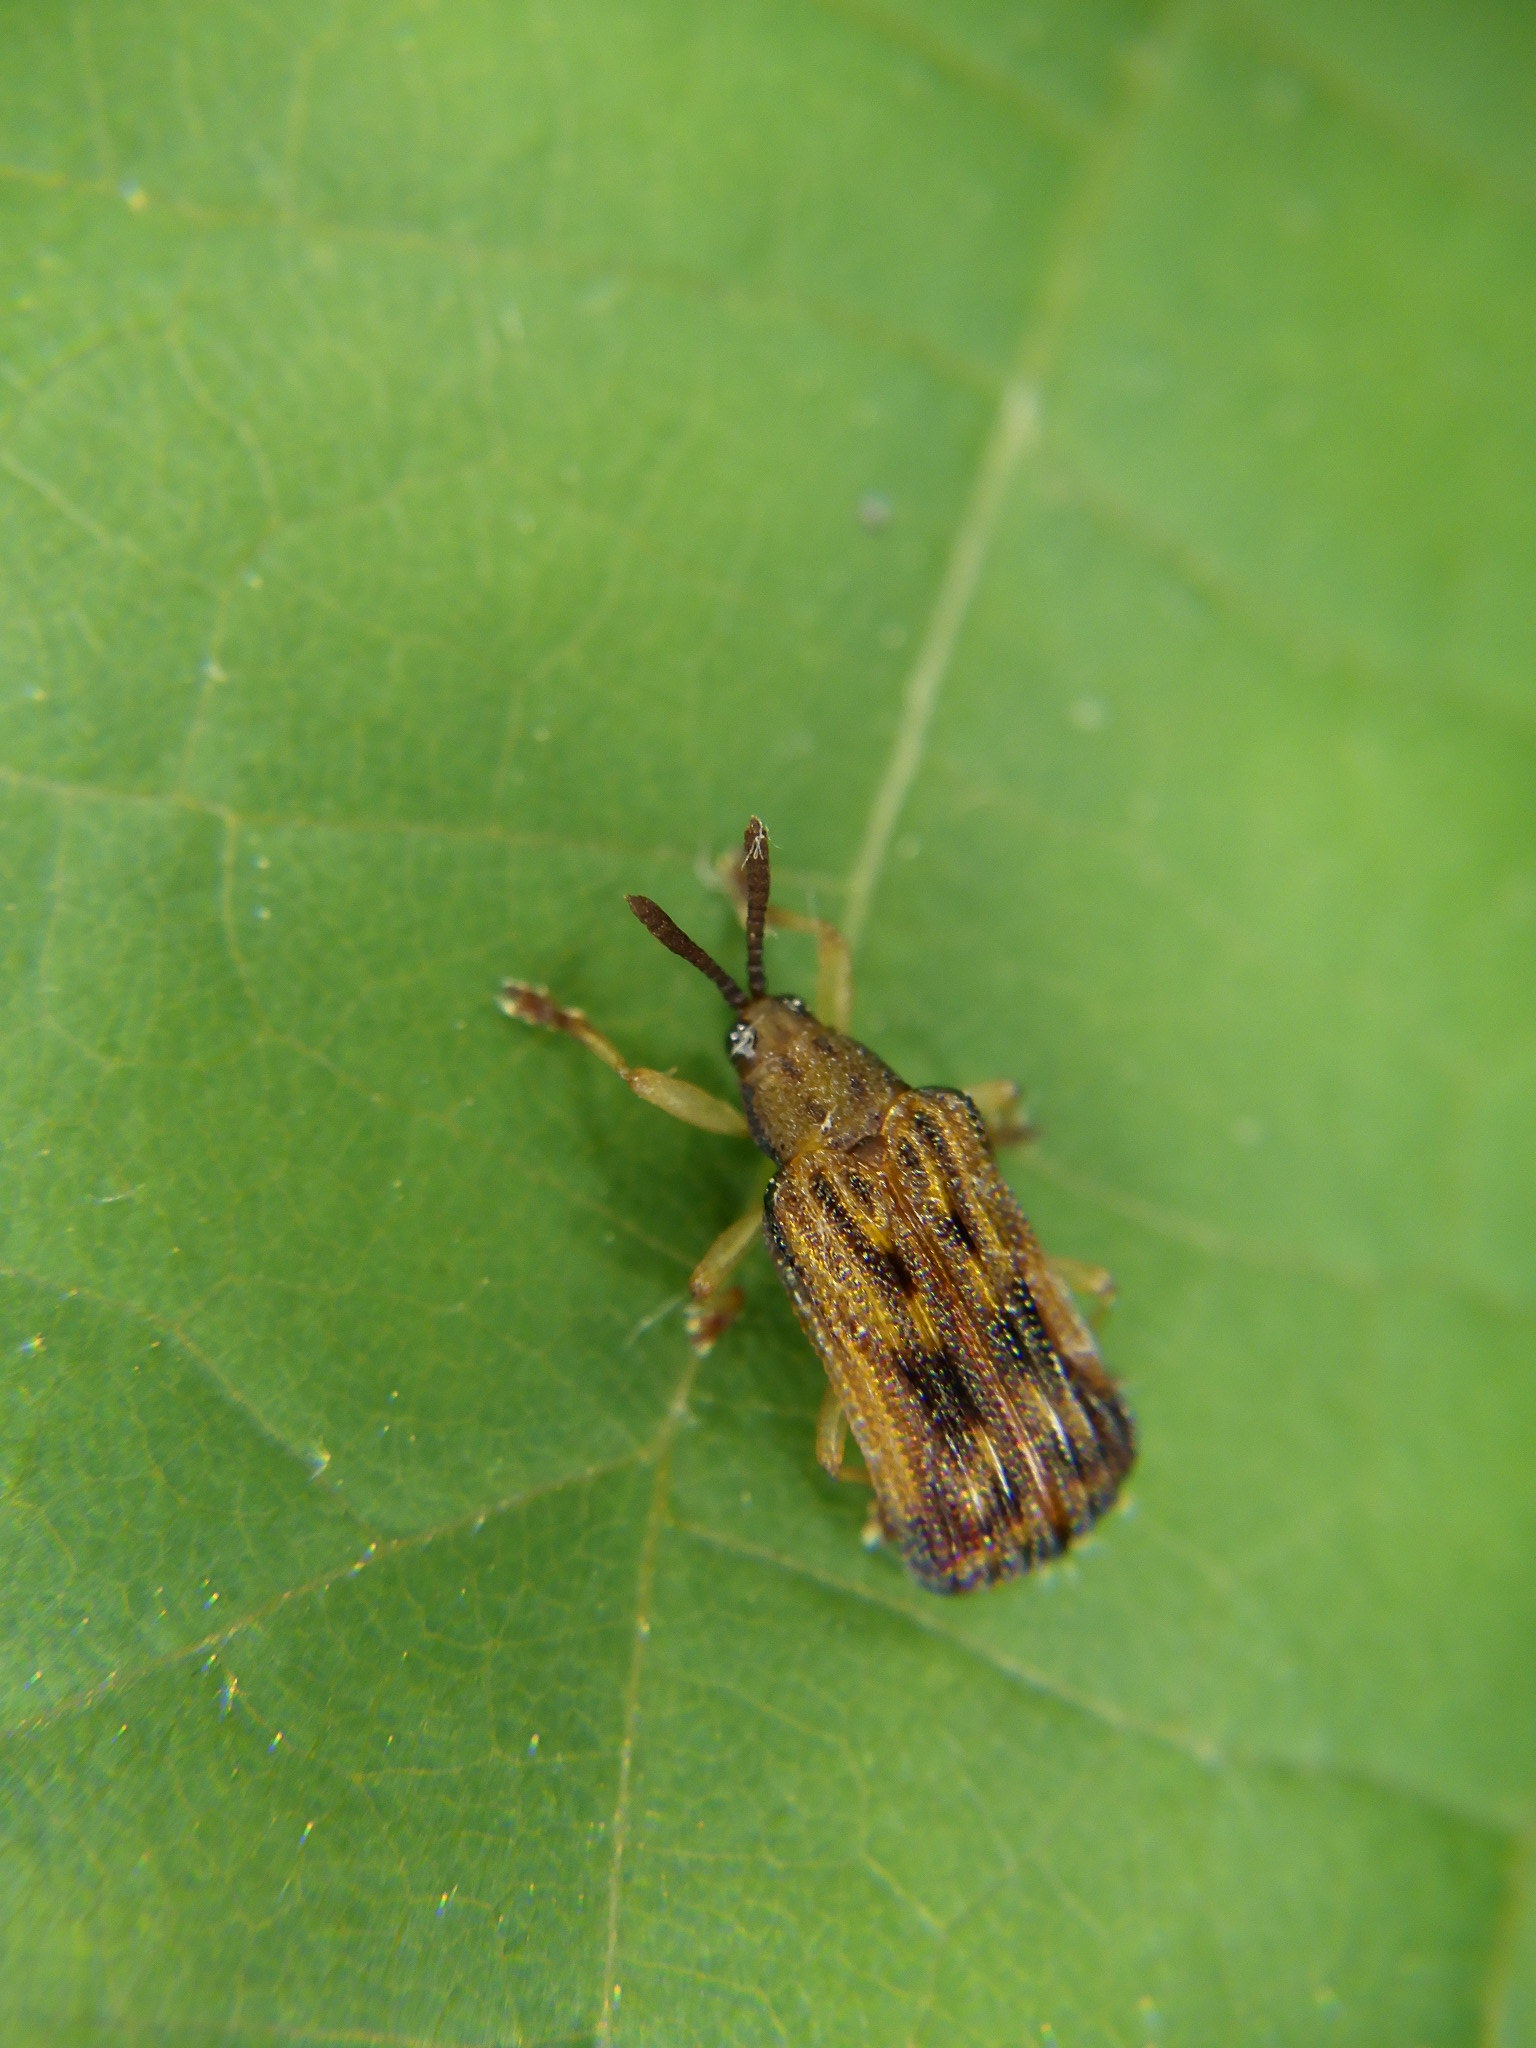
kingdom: Animalia
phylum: Arthropoda
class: Insecta
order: Coleoptera
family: Chrysomelidae
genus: Baliosus
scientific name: Baliosus nervosus
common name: Basswood leaf miner
